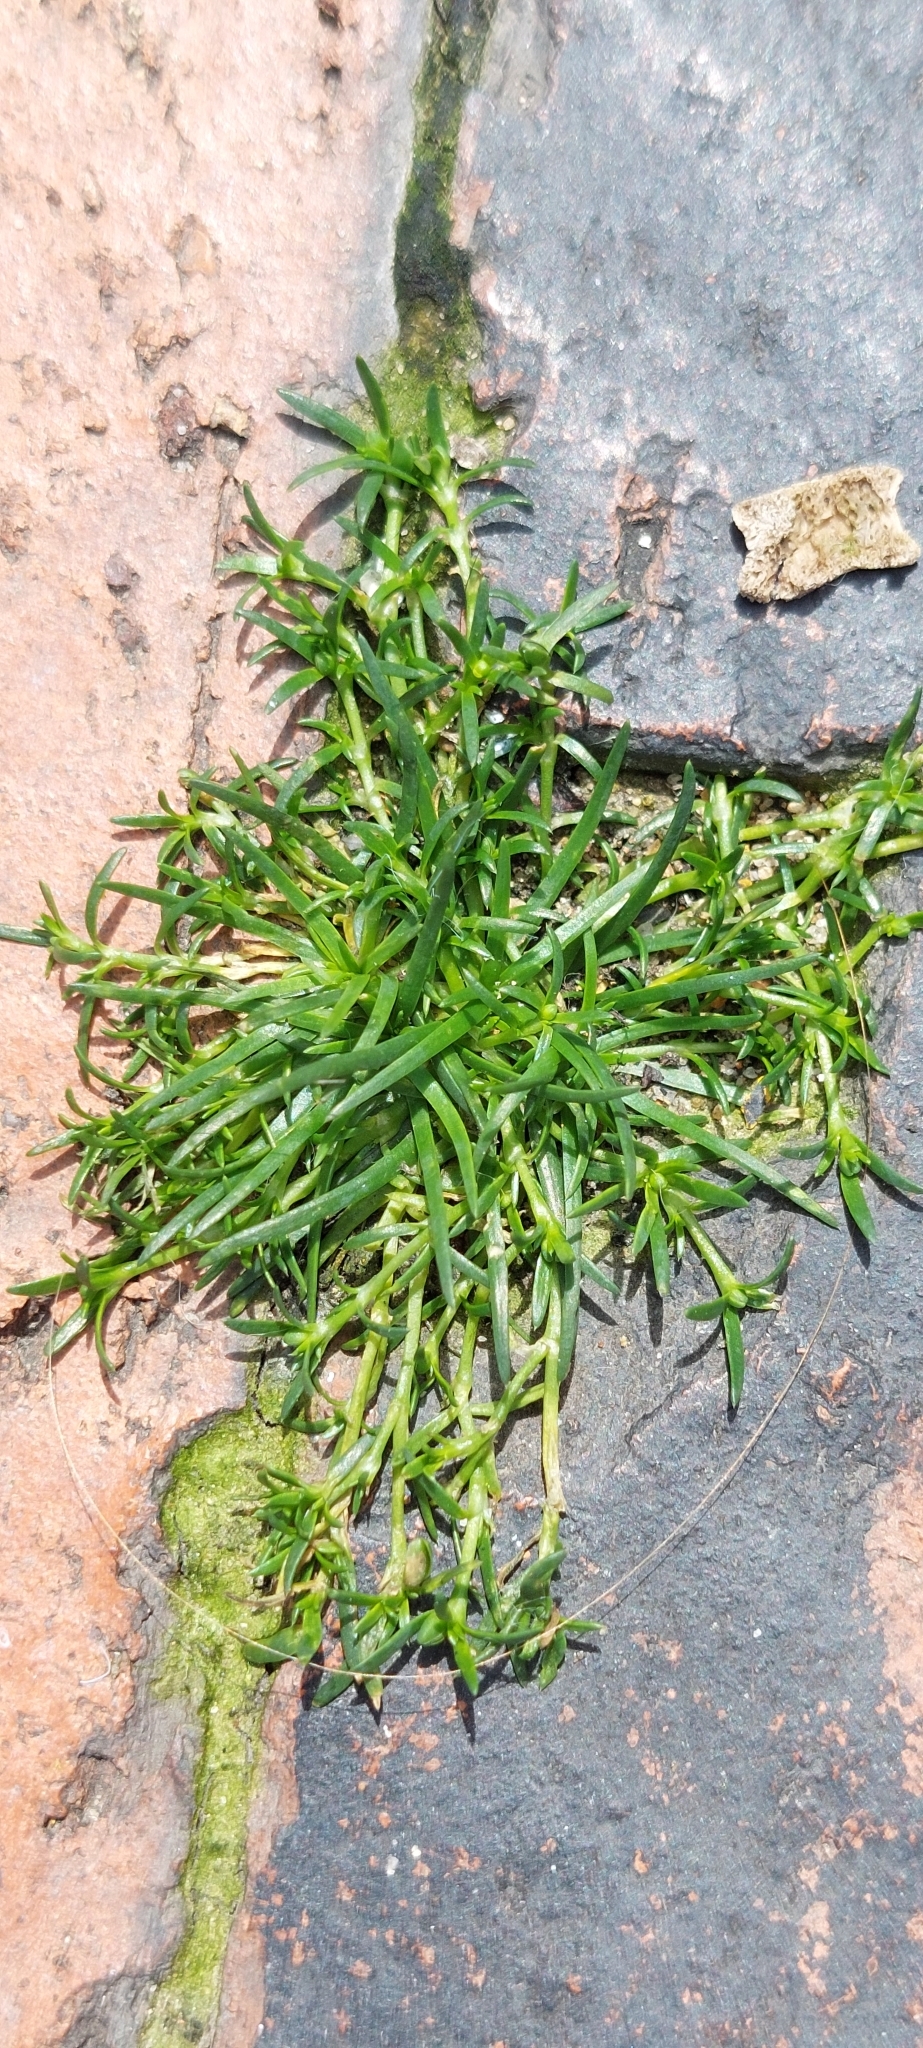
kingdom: Plantae
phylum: Tracheophyta
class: Magnoliopsida
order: Caryophyllales
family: Caryophyllaceae
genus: Sagina
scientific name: Sagina procumbens
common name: Procumbent pearlwort
